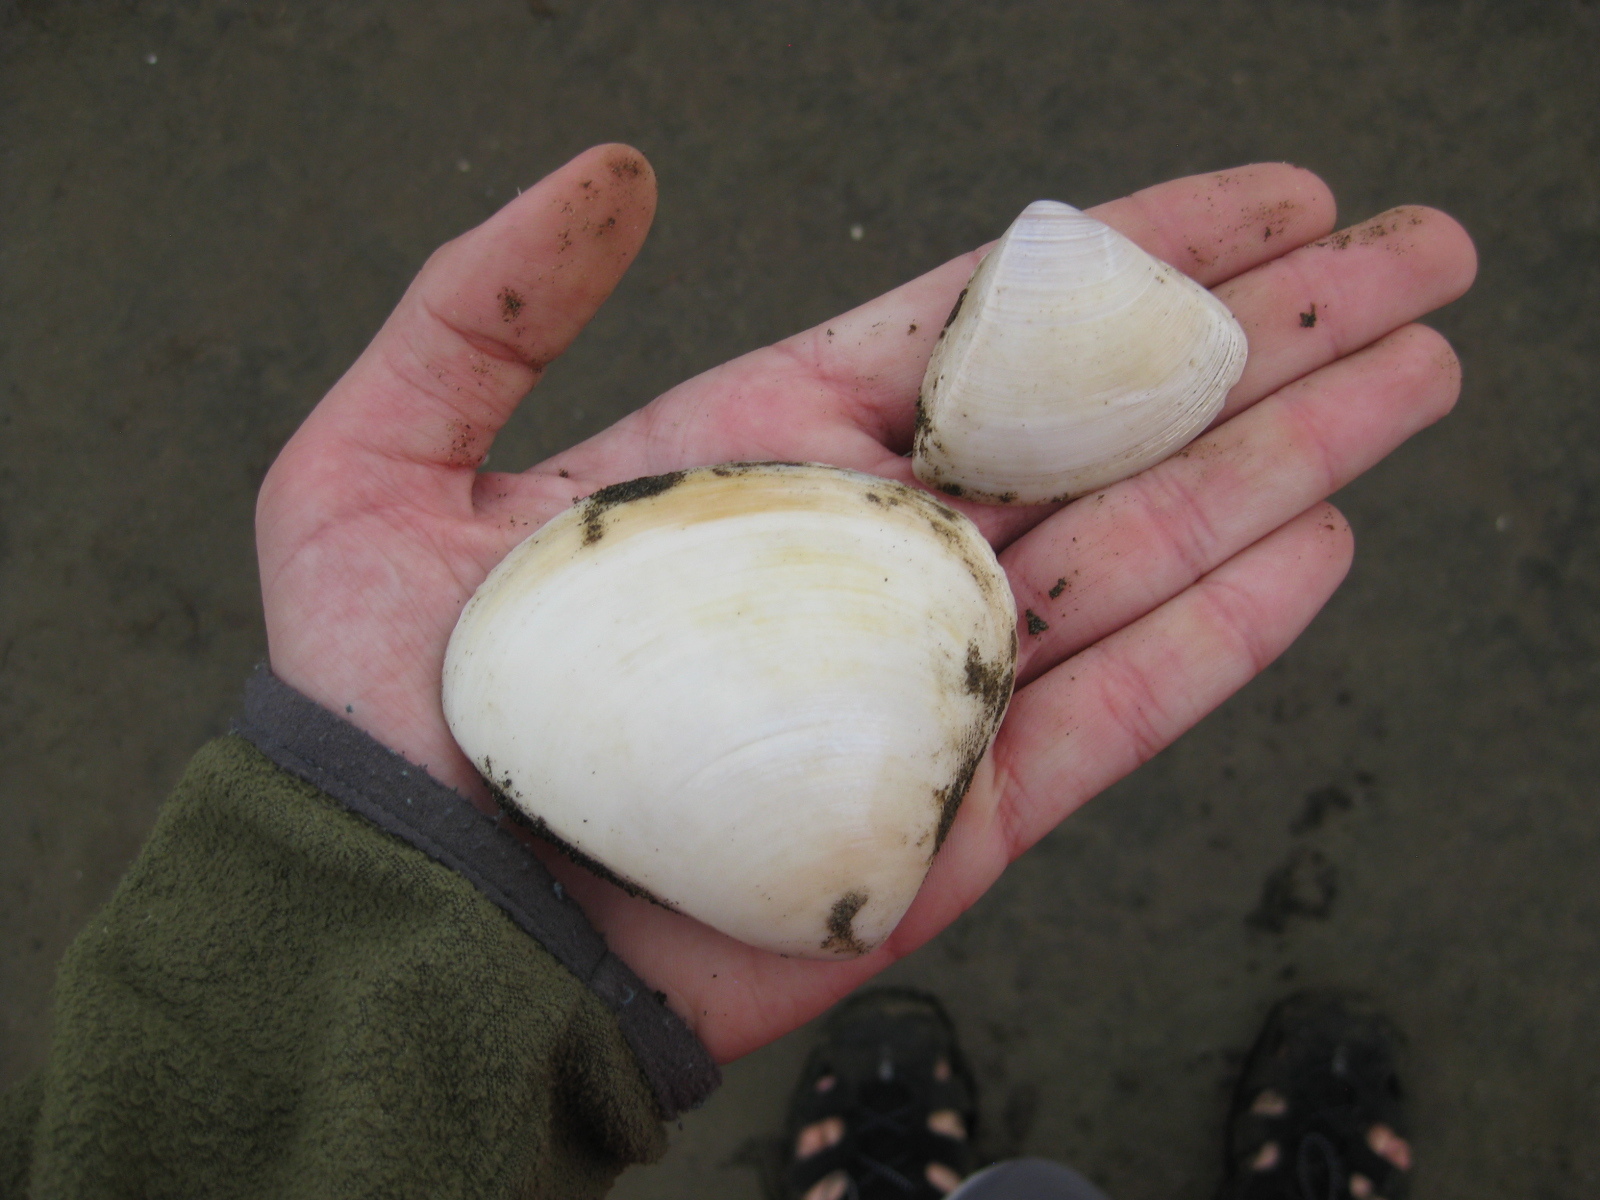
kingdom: Animalia
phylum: Mollusca
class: Bivalvia
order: Venerida
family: Mactridae
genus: Crassula
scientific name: Crassula aequilatera
